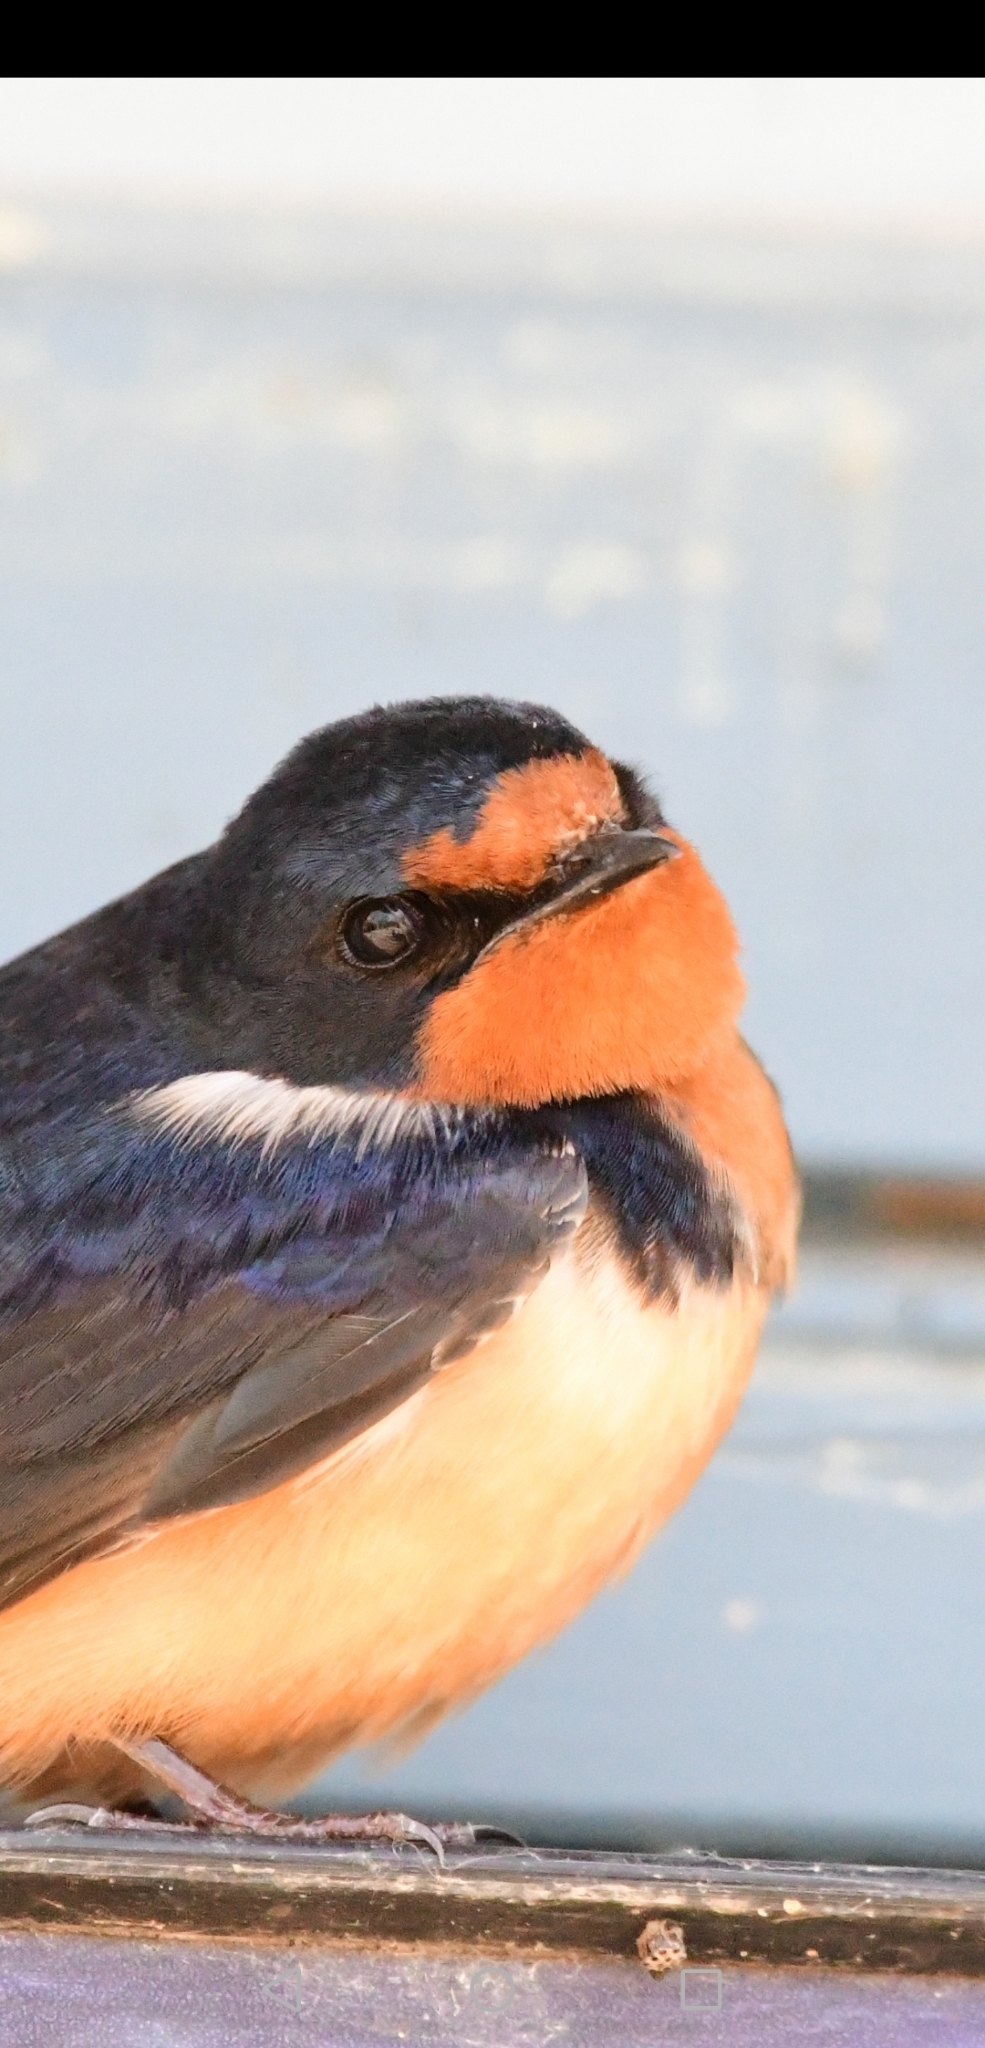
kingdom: Animalia
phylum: Chordata
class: Aves
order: Passeriformes
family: Hirundinidae
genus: Hirundo
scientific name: Hirundo rustica
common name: Barn swallow
